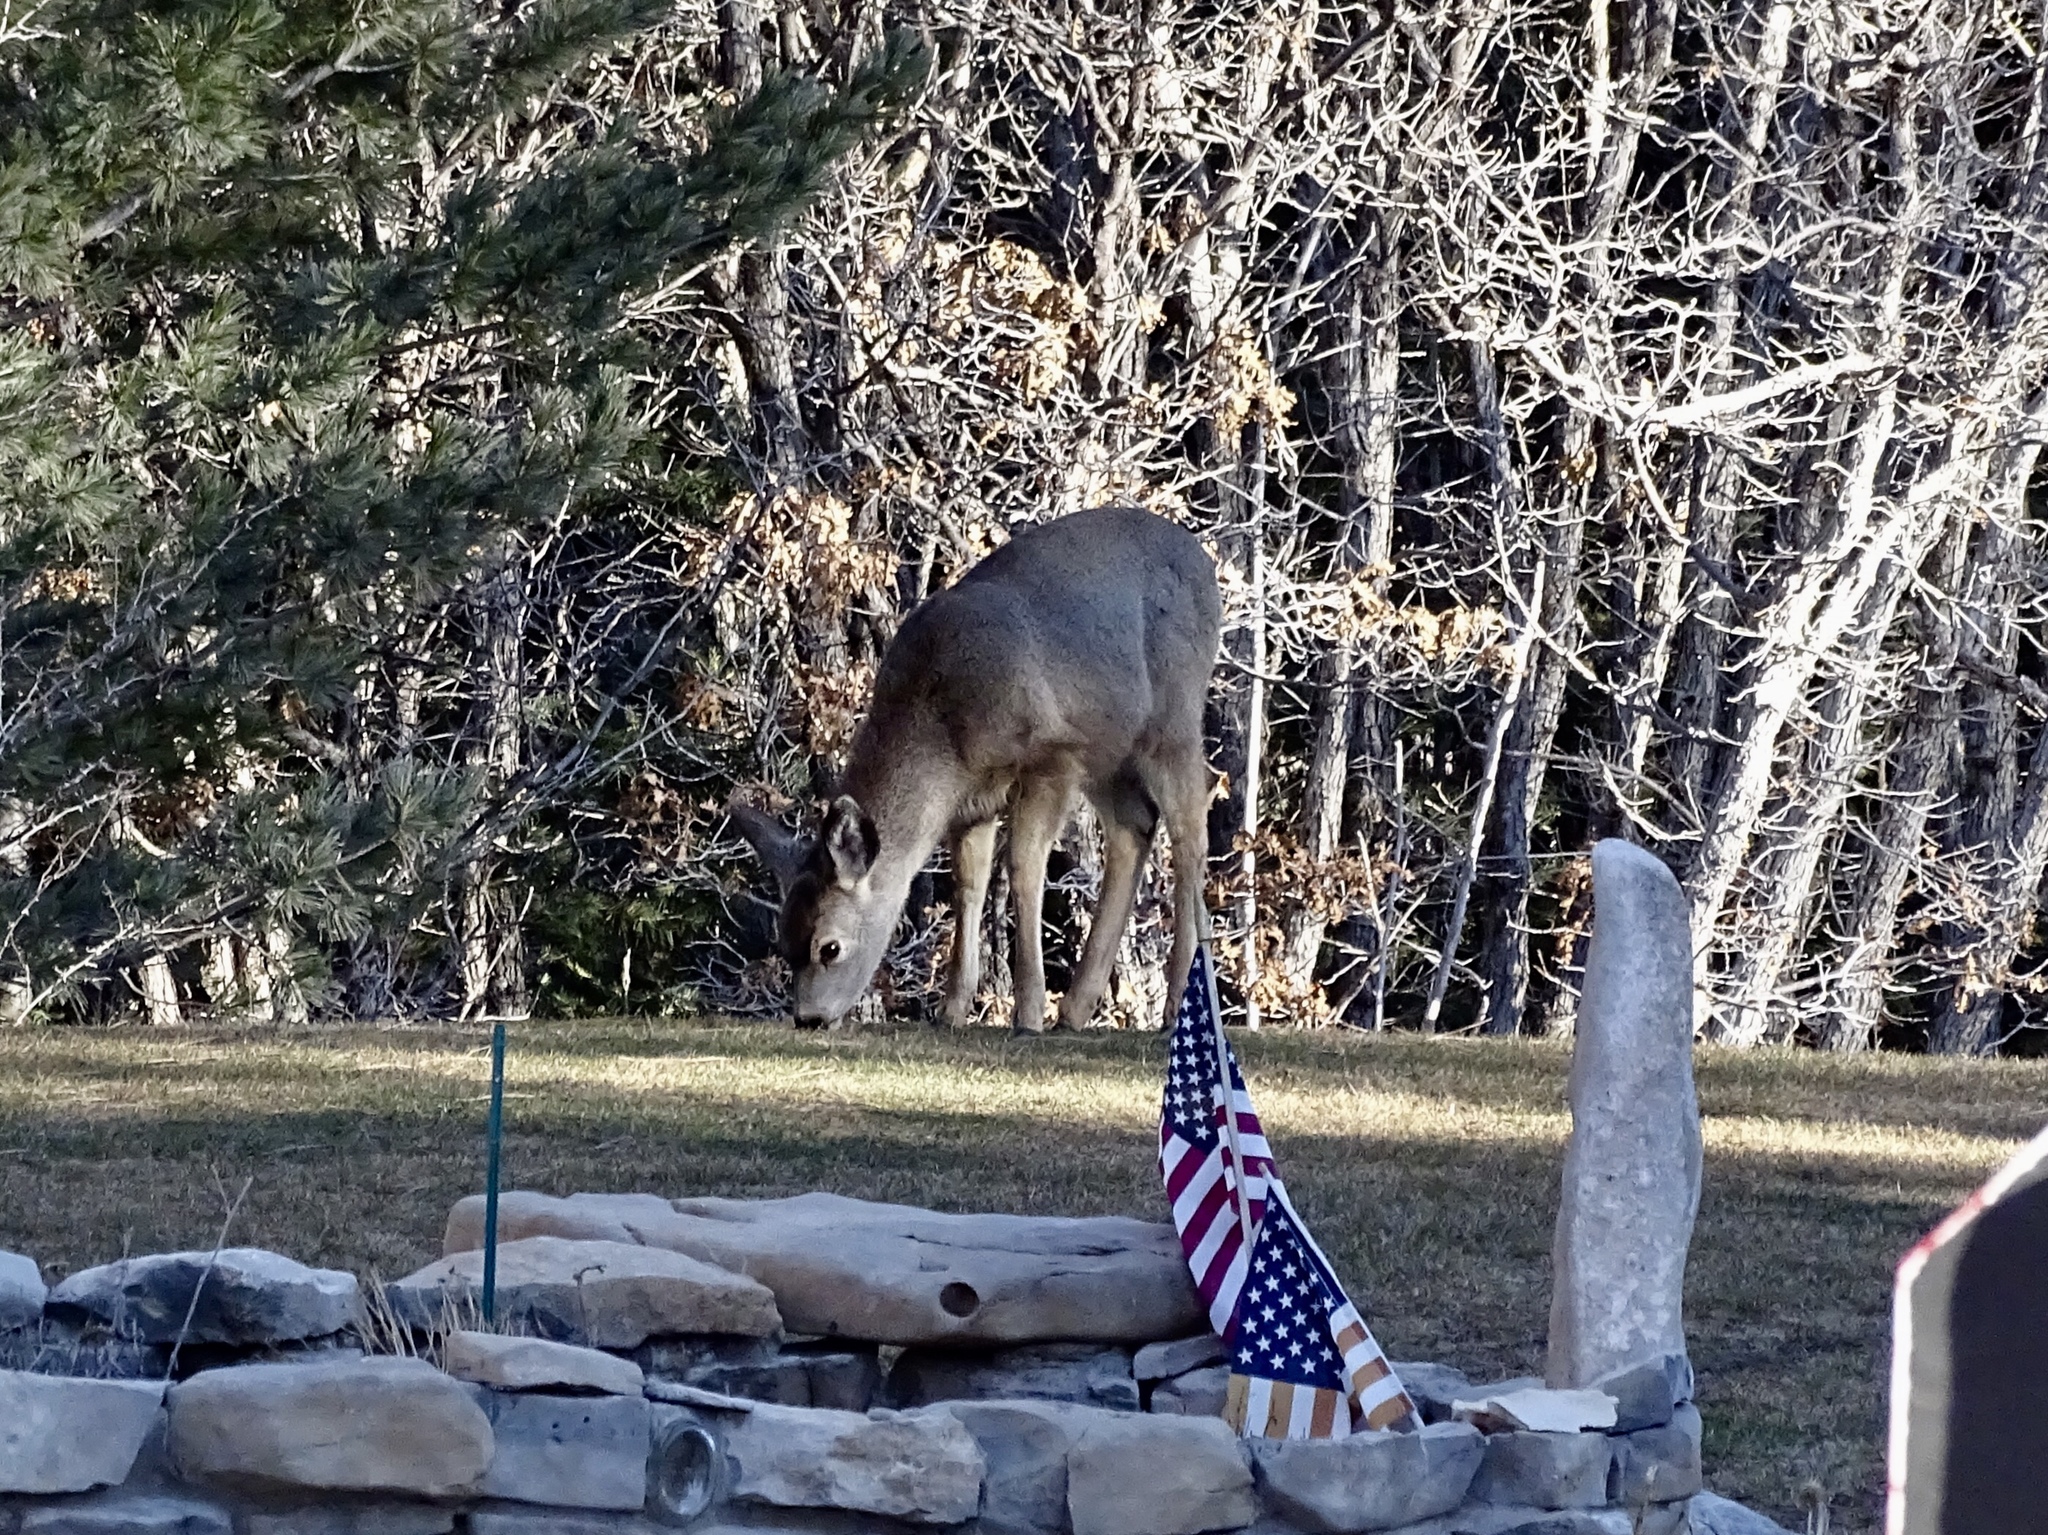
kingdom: Animalia
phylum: Chordata
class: Mammalia
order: Artiodactyla
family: Cervidae
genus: Odocoileus
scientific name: Odocoileus hemionus
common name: Mule deer
